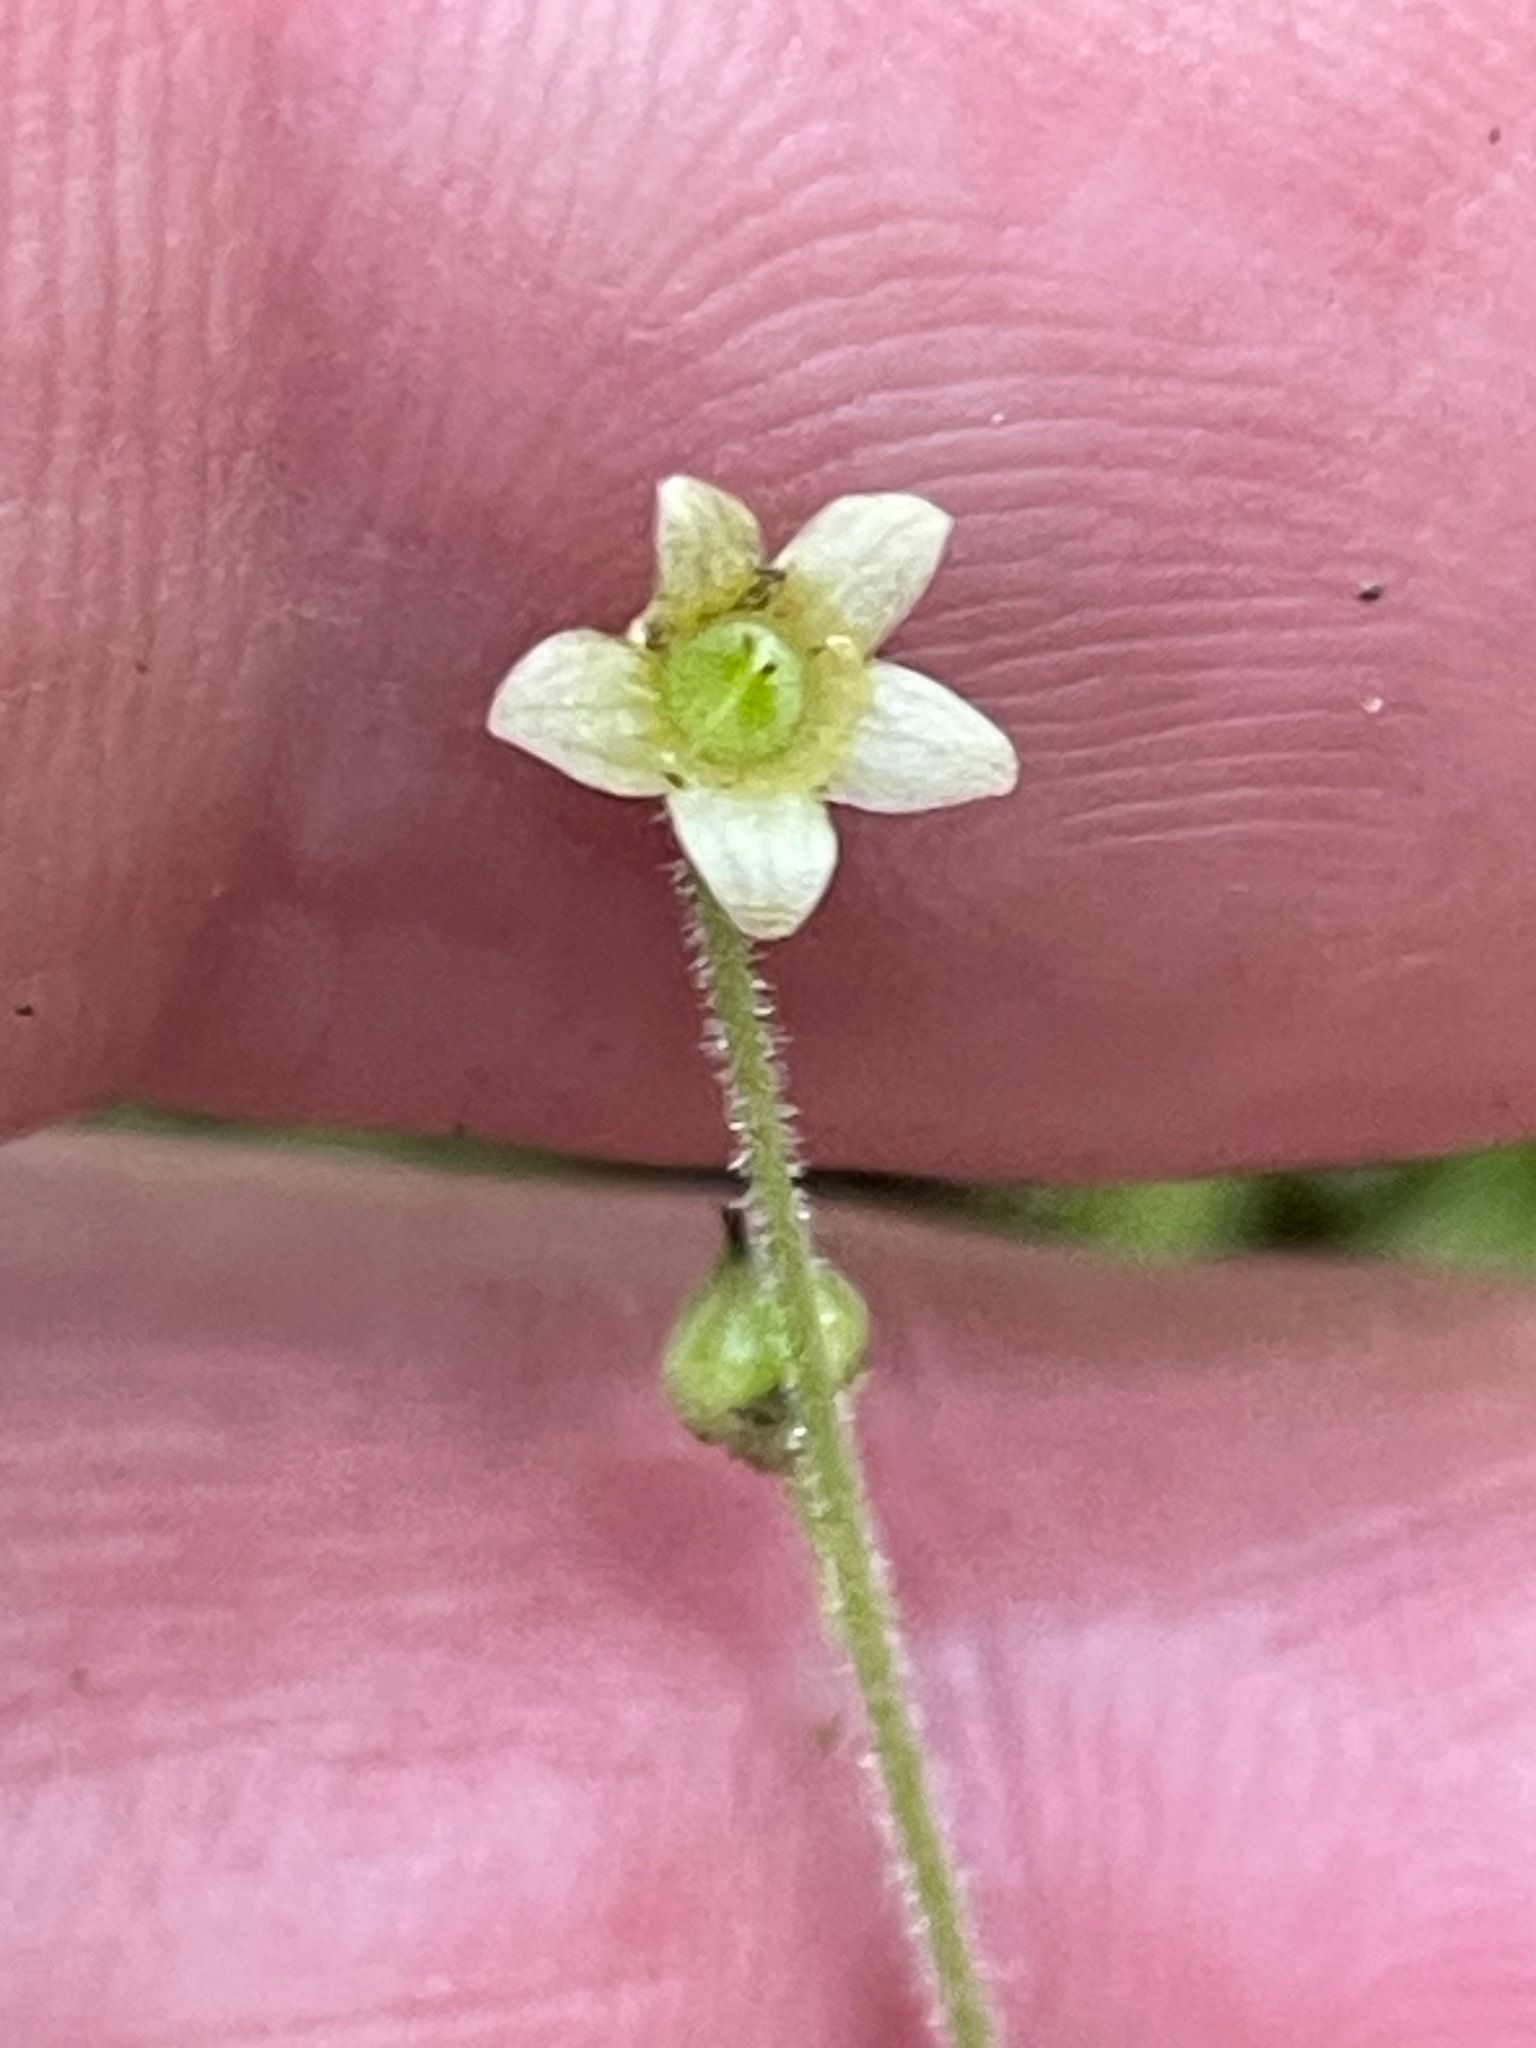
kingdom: Plantae
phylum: Tracheophyta
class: Magnoliopsida
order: Saxifragales
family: Saxifragaceae
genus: Mitella
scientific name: Mitella nuda
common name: Bare-stemmed bishop's-cap
